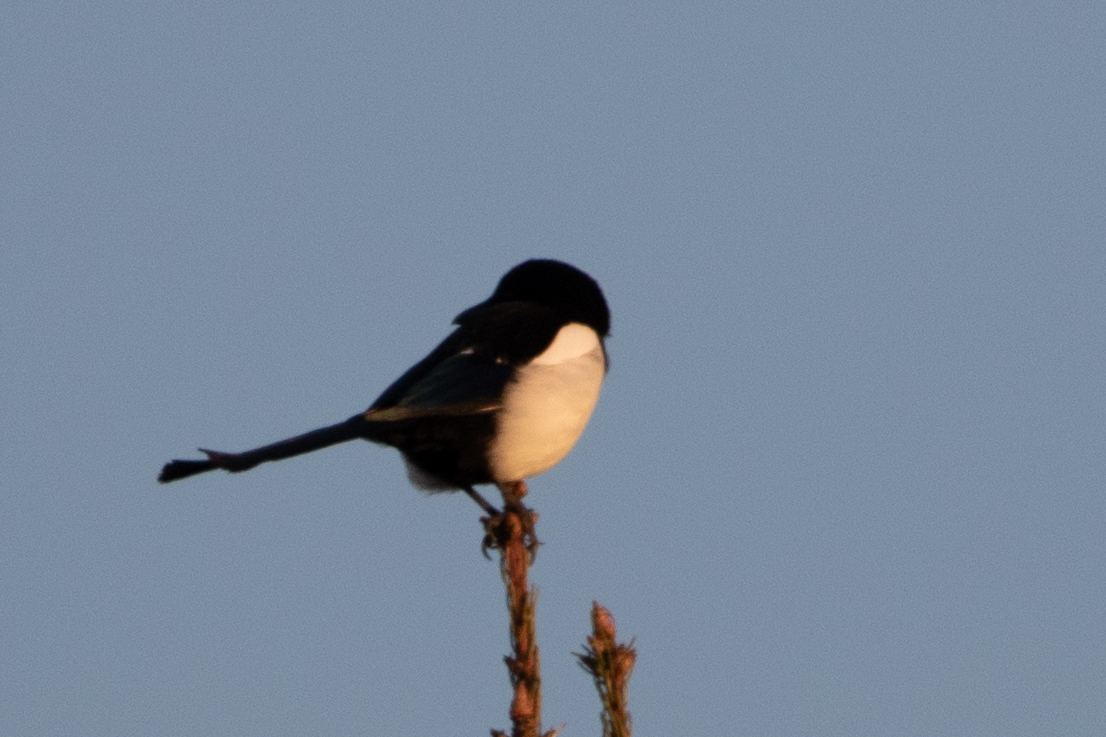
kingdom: Animalia
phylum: Chordata
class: Aves
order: Passeriformes
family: Corvidae
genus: Pica
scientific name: Pica pica
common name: Eurasian magpie
